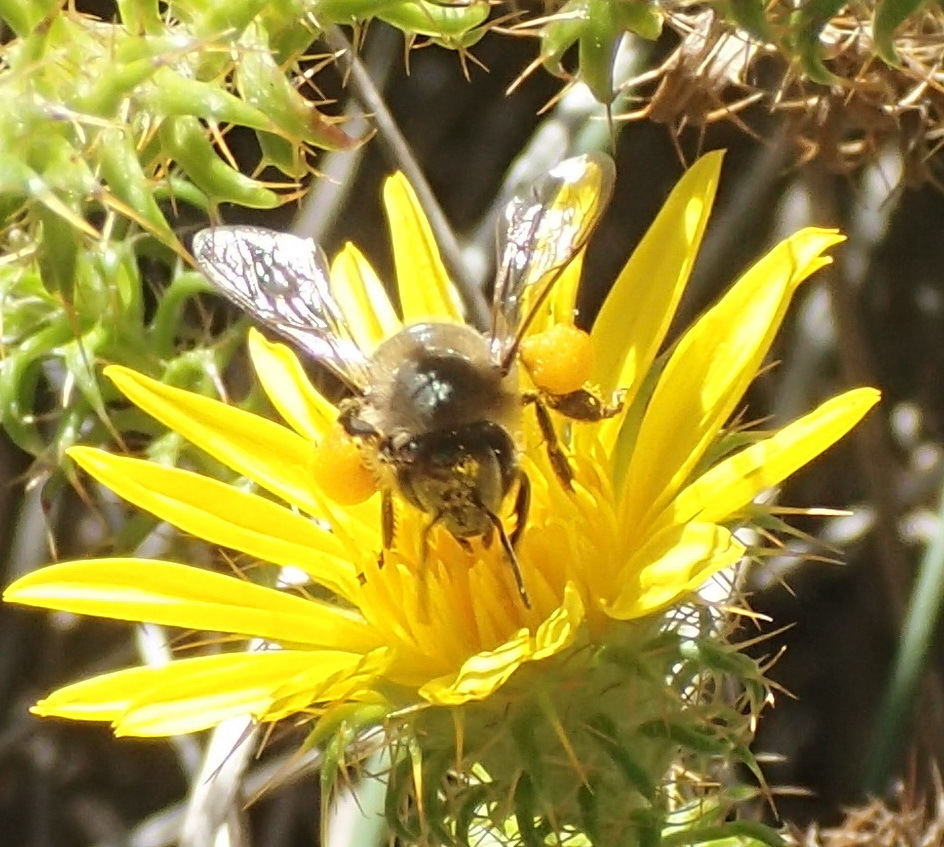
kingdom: Animalia
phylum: Arthropoda
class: Insecta
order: Hymenoptera
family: Apidae
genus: Apis
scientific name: Apis mellifera
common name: Honey bee
